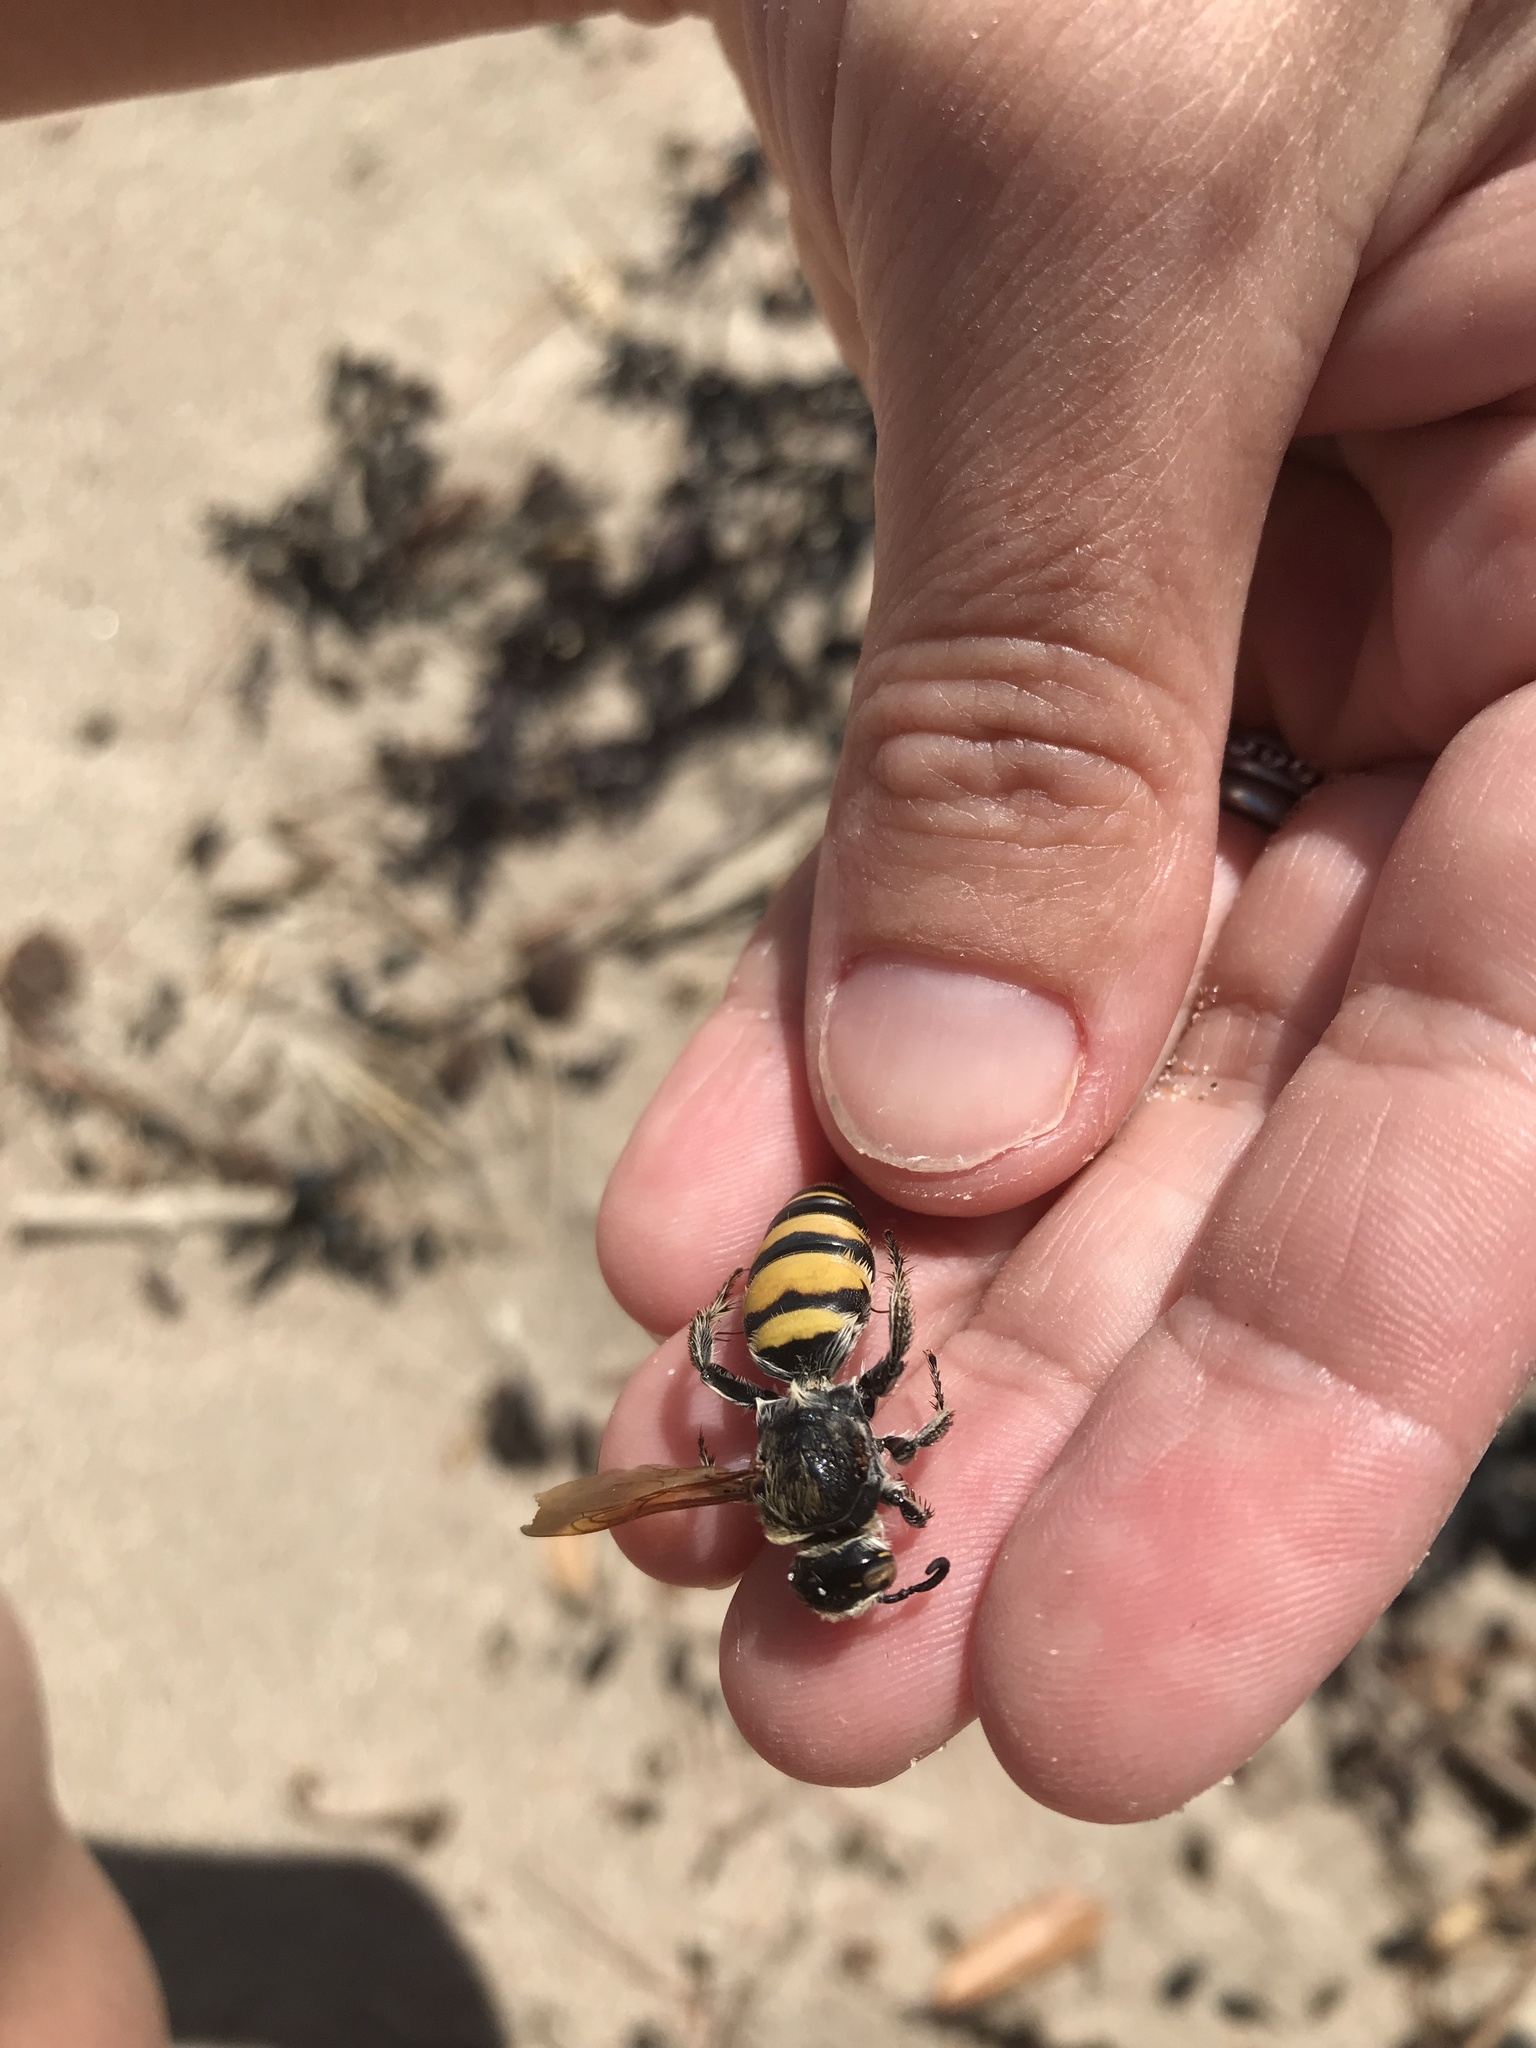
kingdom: Animalia
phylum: Arthropoda
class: Insecta
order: Hymenoptera
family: Scoliidae
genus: Radumeris
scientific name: Radumeris tasmaniensis
